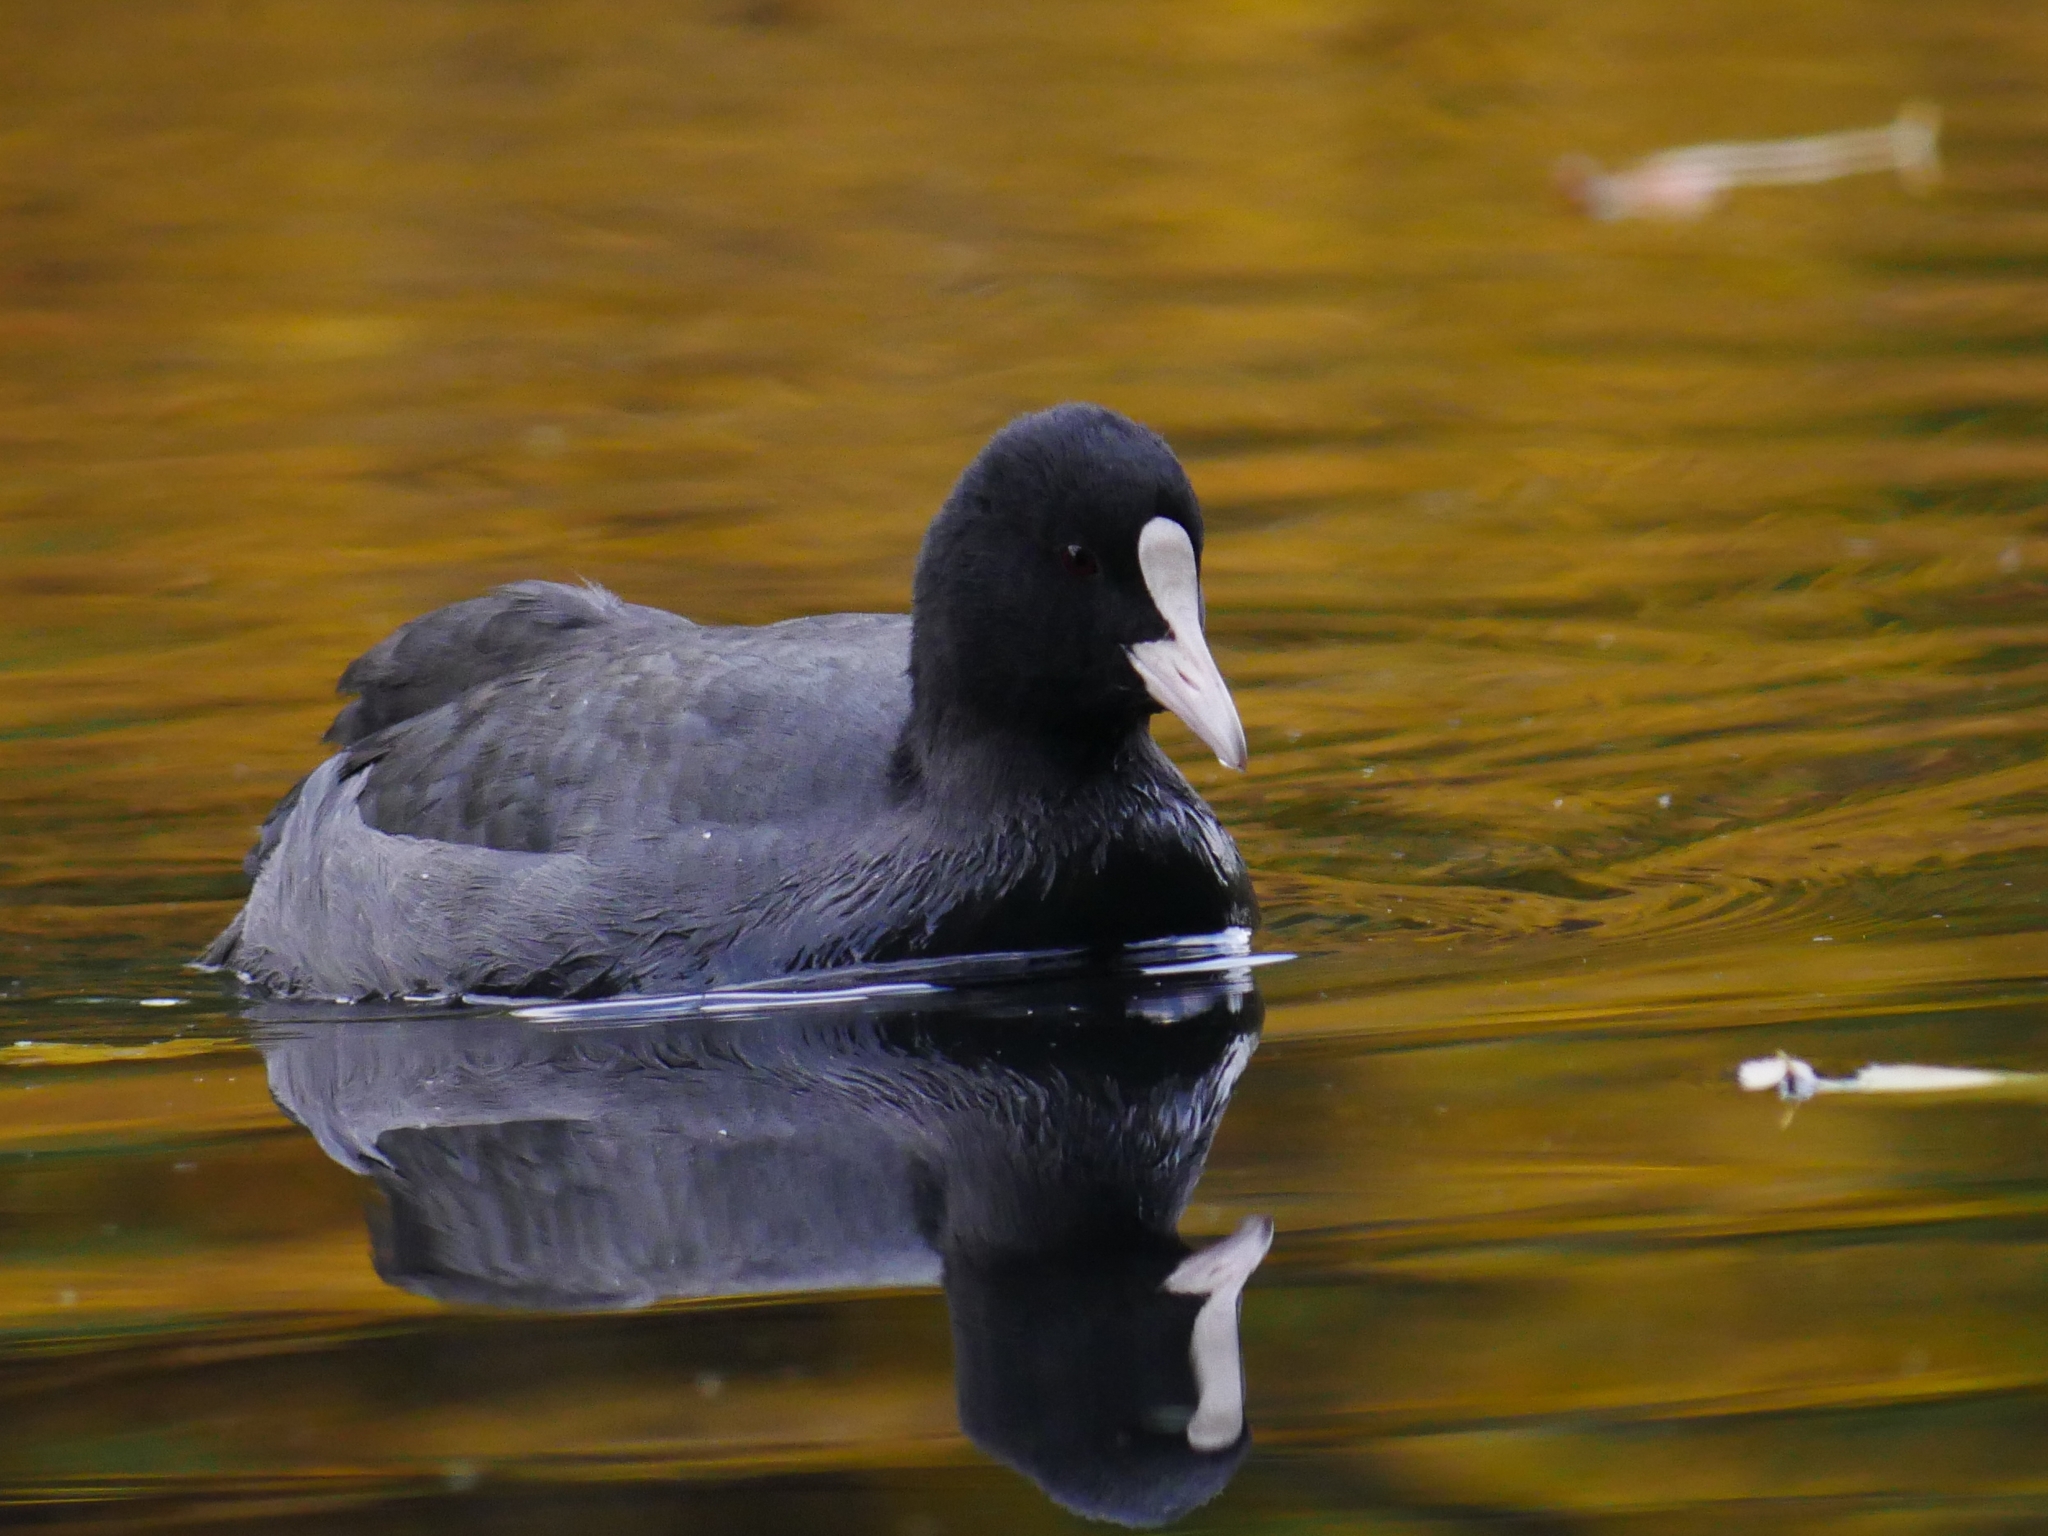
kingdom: Animalia
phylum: Chordata
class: Aves
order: Gruiformes
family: Rallidae
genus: Fulica
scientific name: Fulica atra
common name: Eurasian coot
